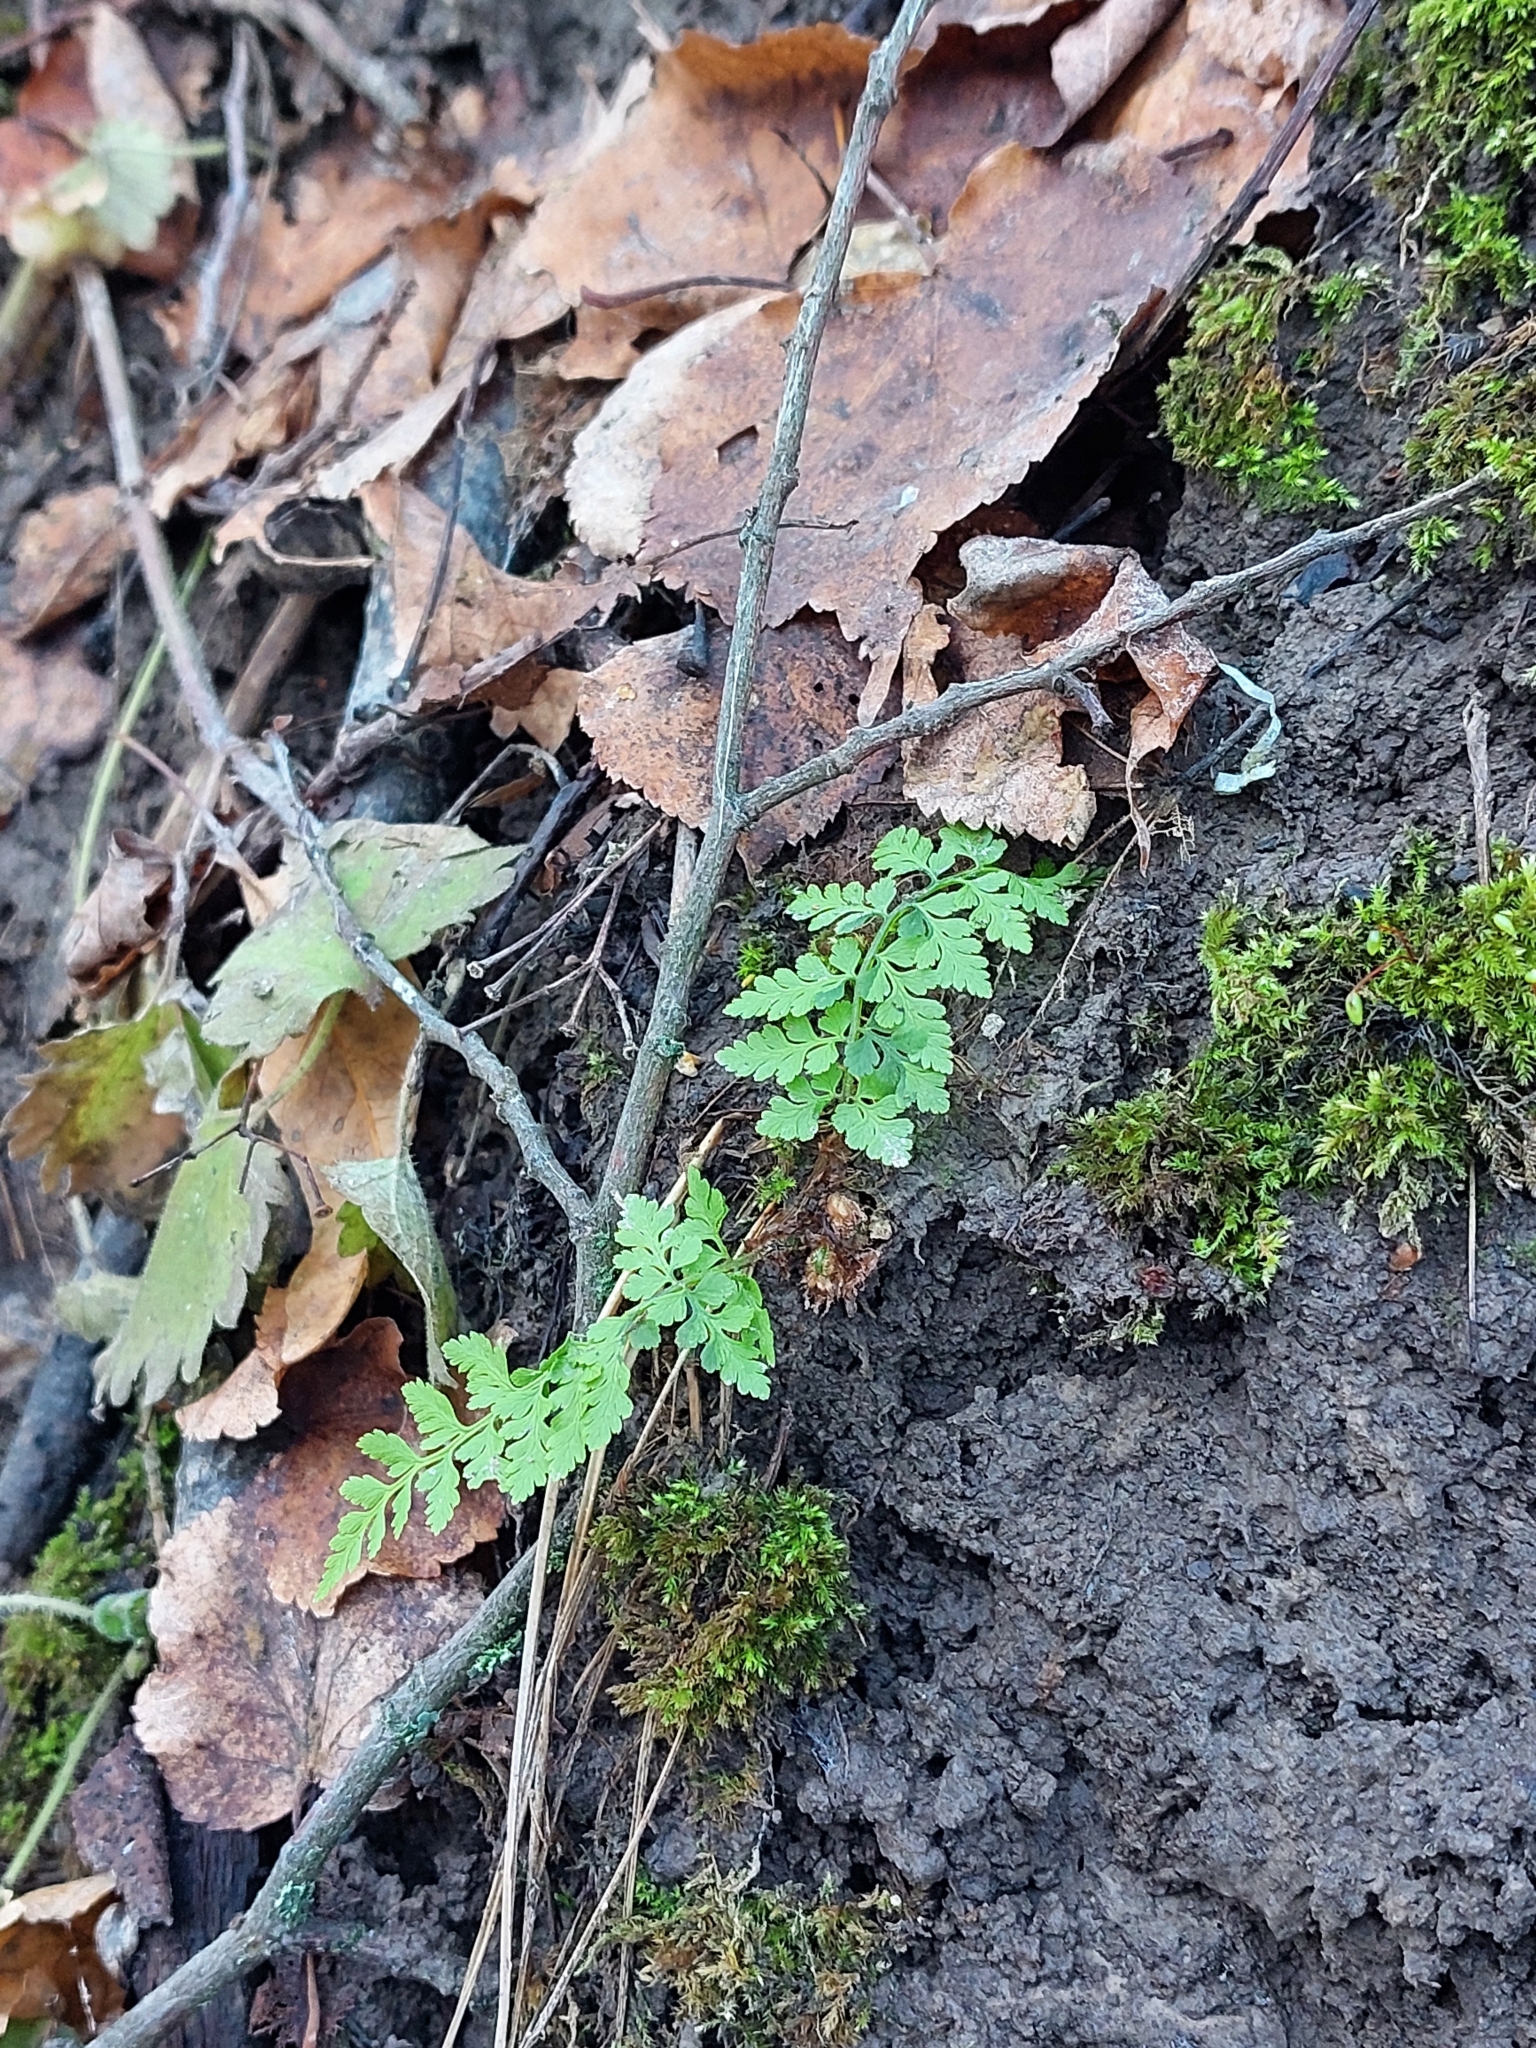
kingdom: Plantae
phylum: Tracheophyta
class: Polypodiopsida
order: Polypodiales
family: Cystopteridaceae
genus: Cystopteris
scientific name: Cystopteris fragilis
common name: Brittle bladder fern
